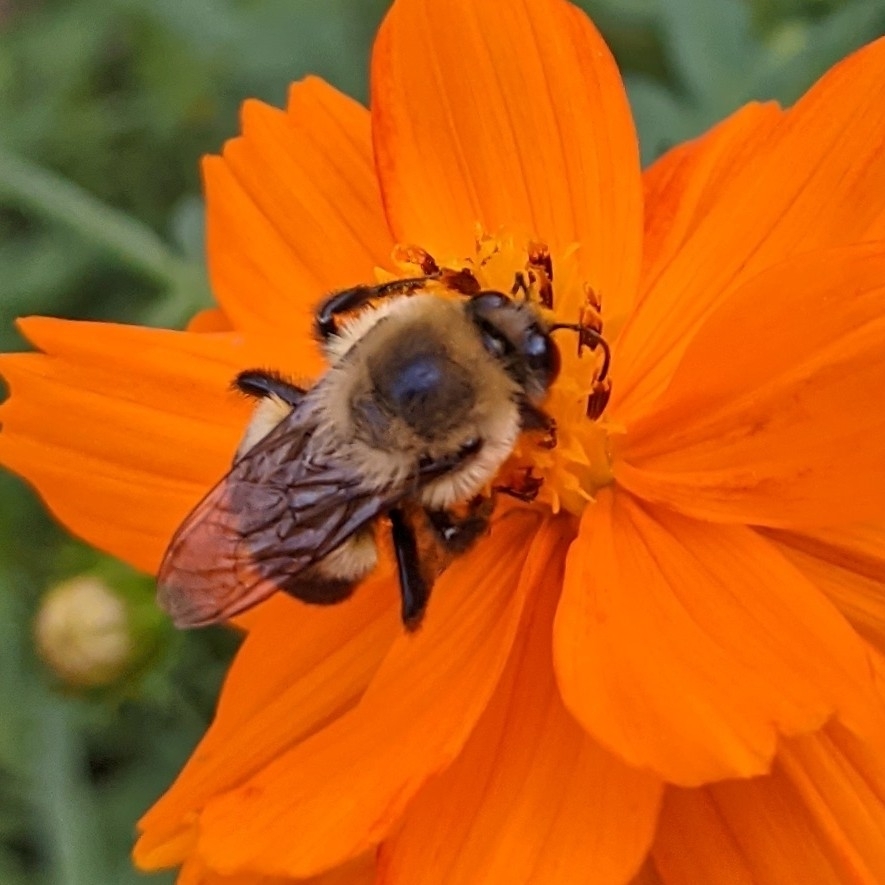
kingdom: Animalia
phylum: Arthropoda
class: Insecta
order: Hymenoptera
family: Apidae
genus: Bombus
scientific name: Bombus griseocollis
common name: Brown-belted bumble bee
